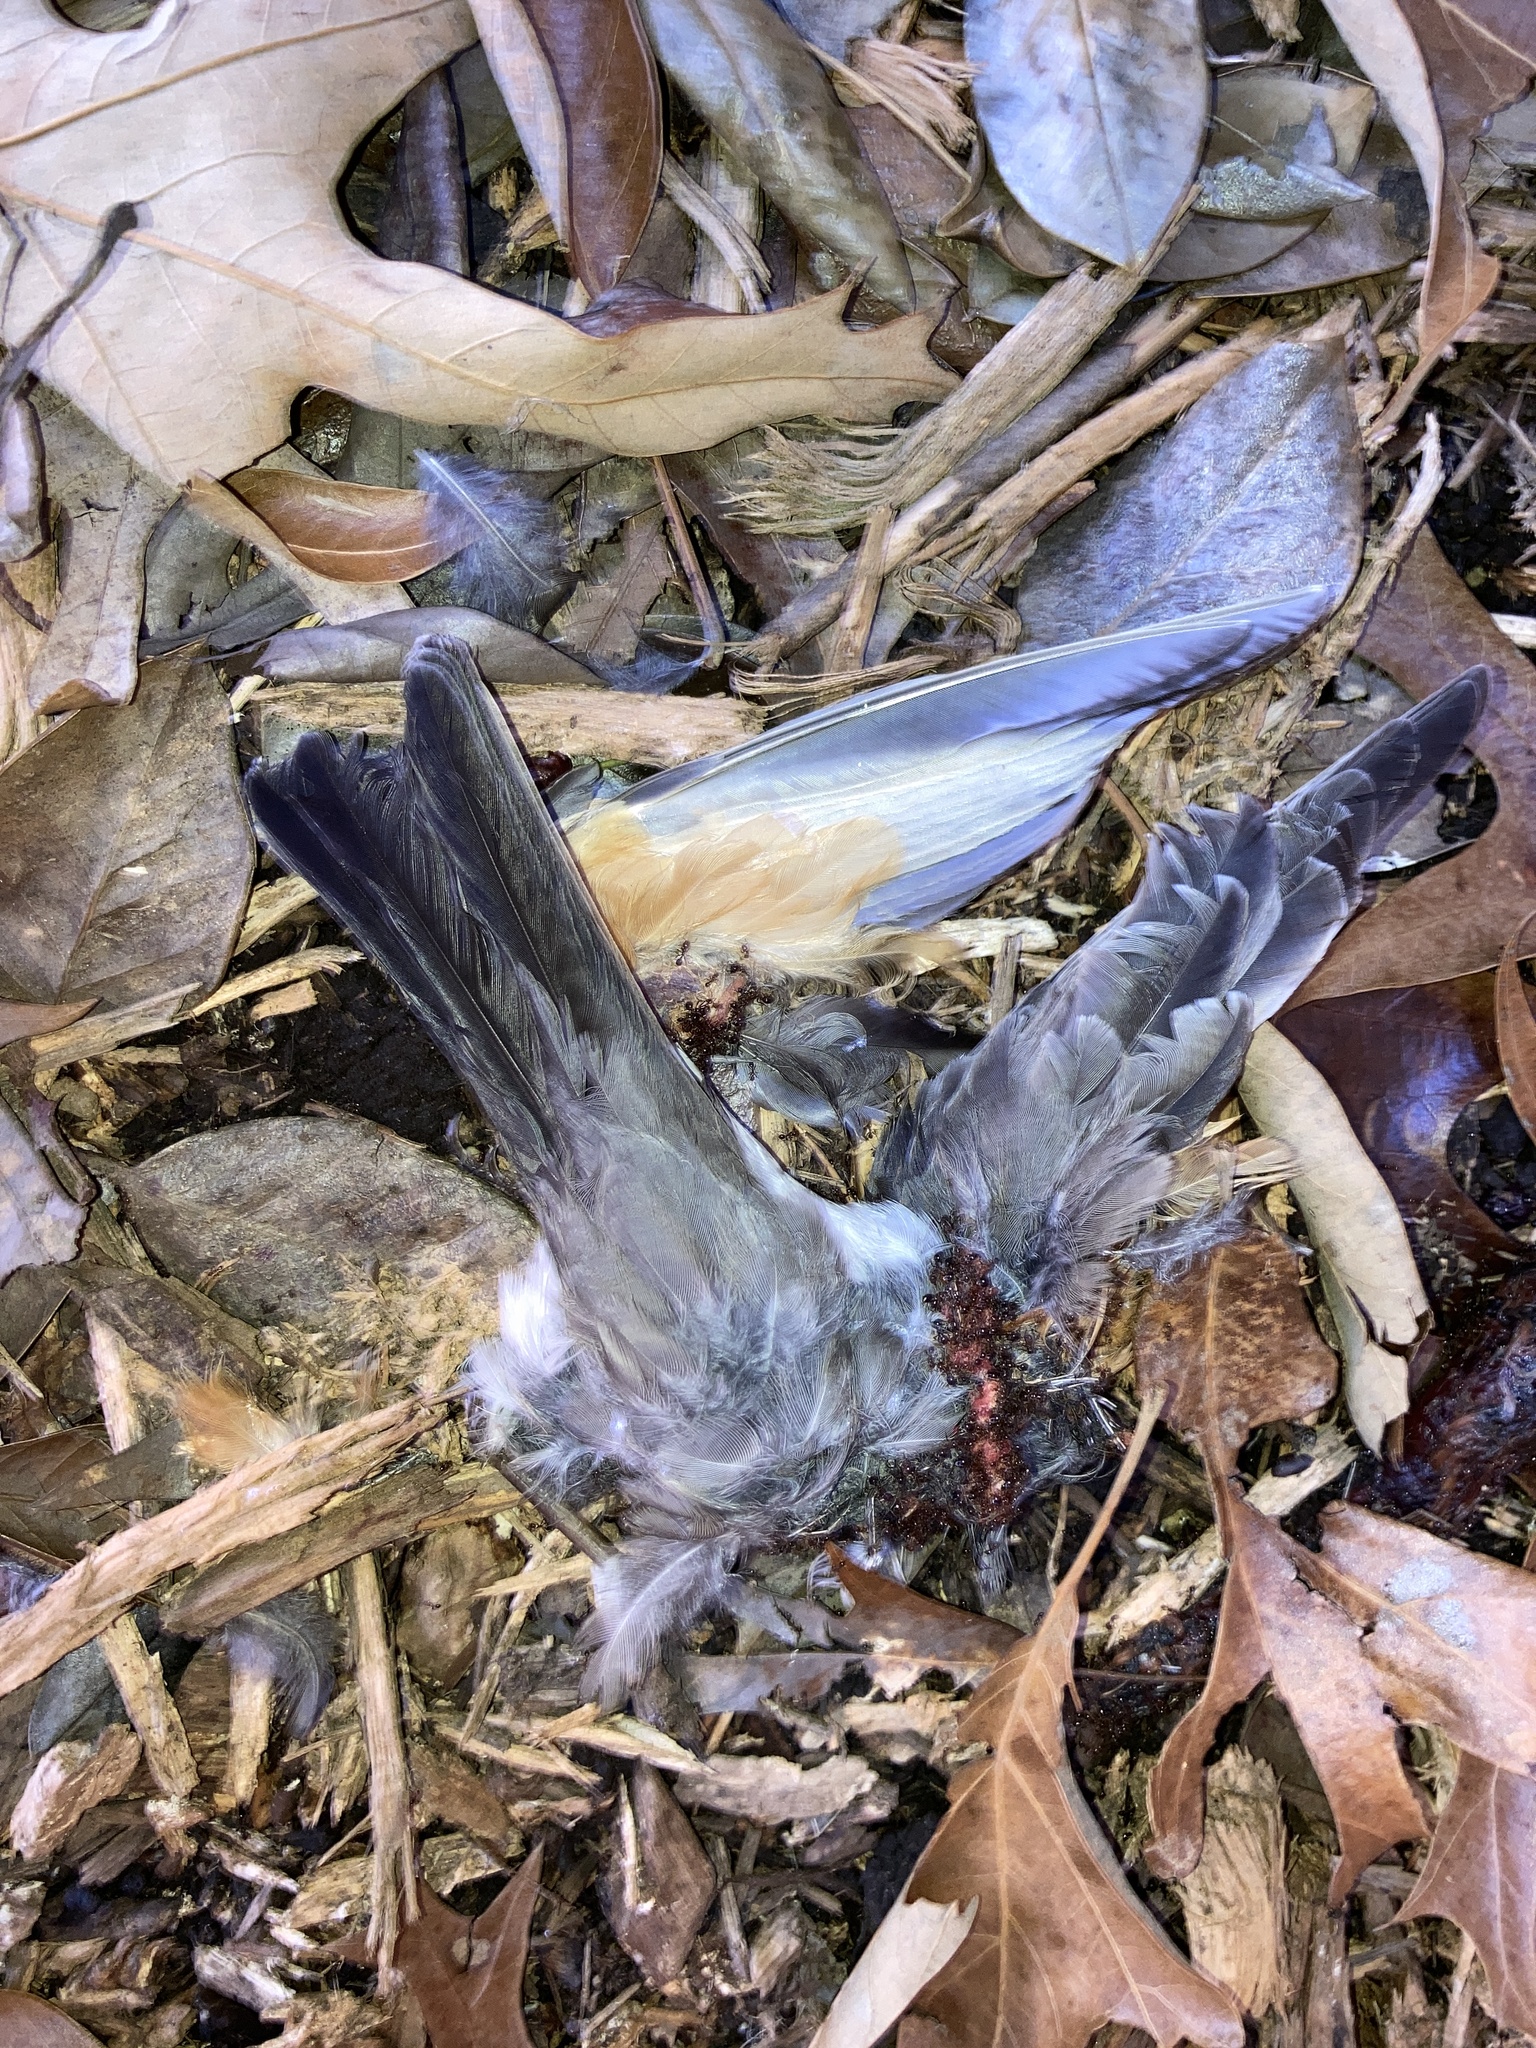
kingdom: Animalia
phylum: Chordata
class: Aves
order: Passeriformes
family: Turdidae
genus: Turdus
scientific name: Turdus migratorius
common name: American robin
